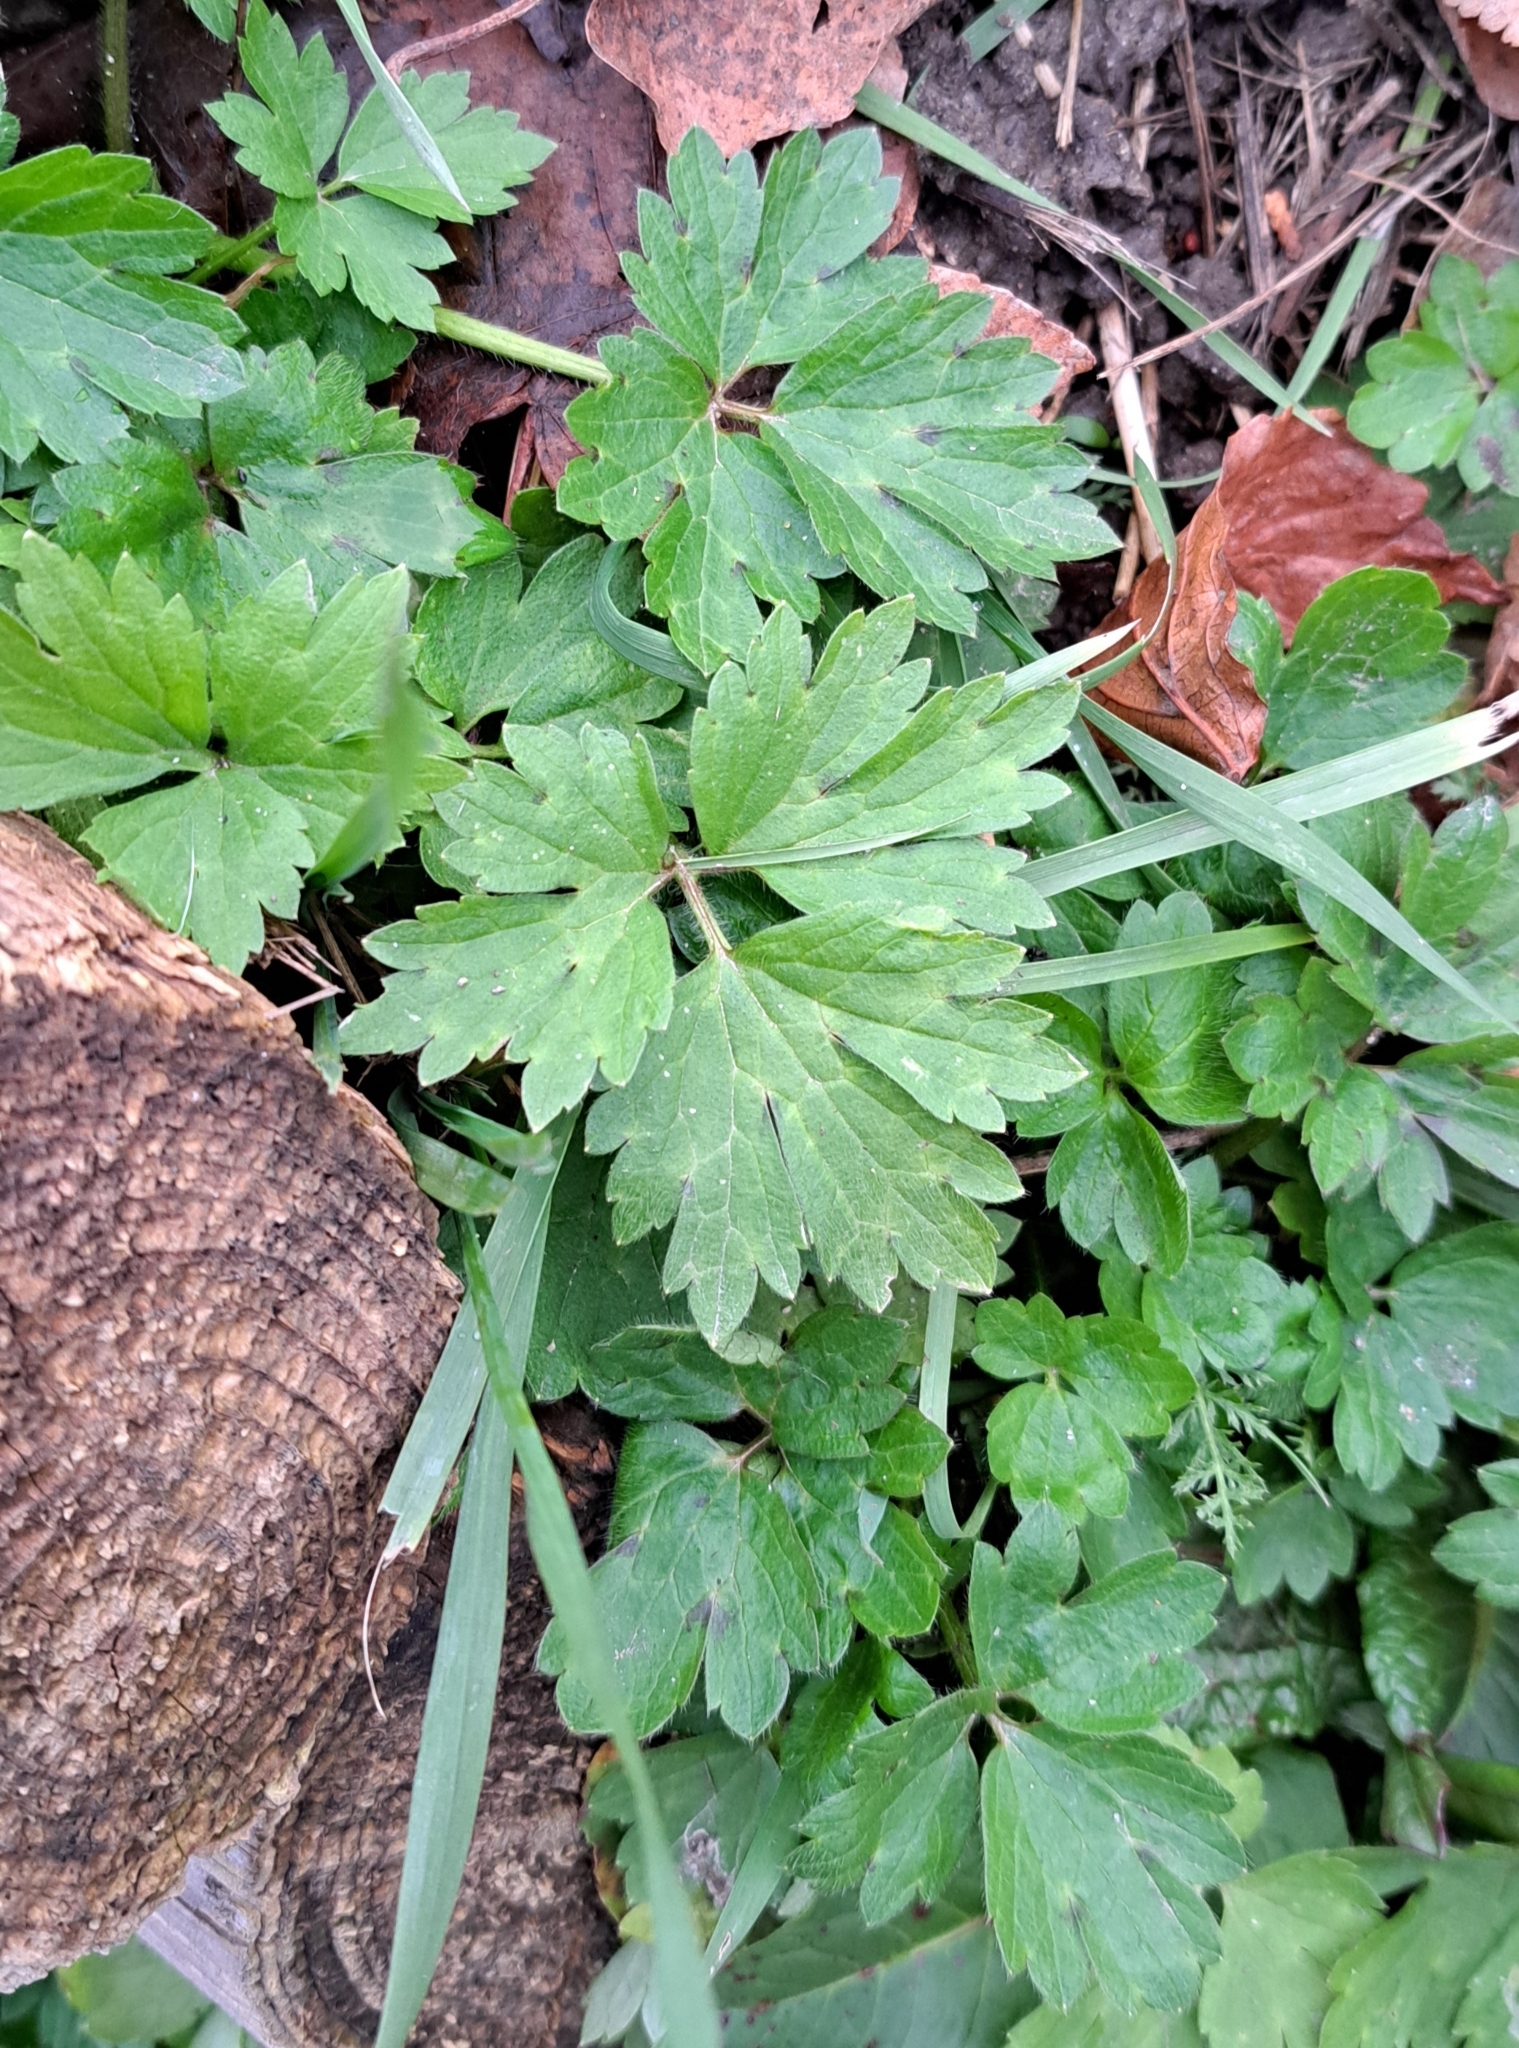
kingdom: Plantae
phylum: Tracheophyta
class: Magnoliopsida
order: Ranunculales
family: Ranunculaceae
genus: Ranunculus
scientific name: Ranunculus repens
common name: Creeping buttercup
